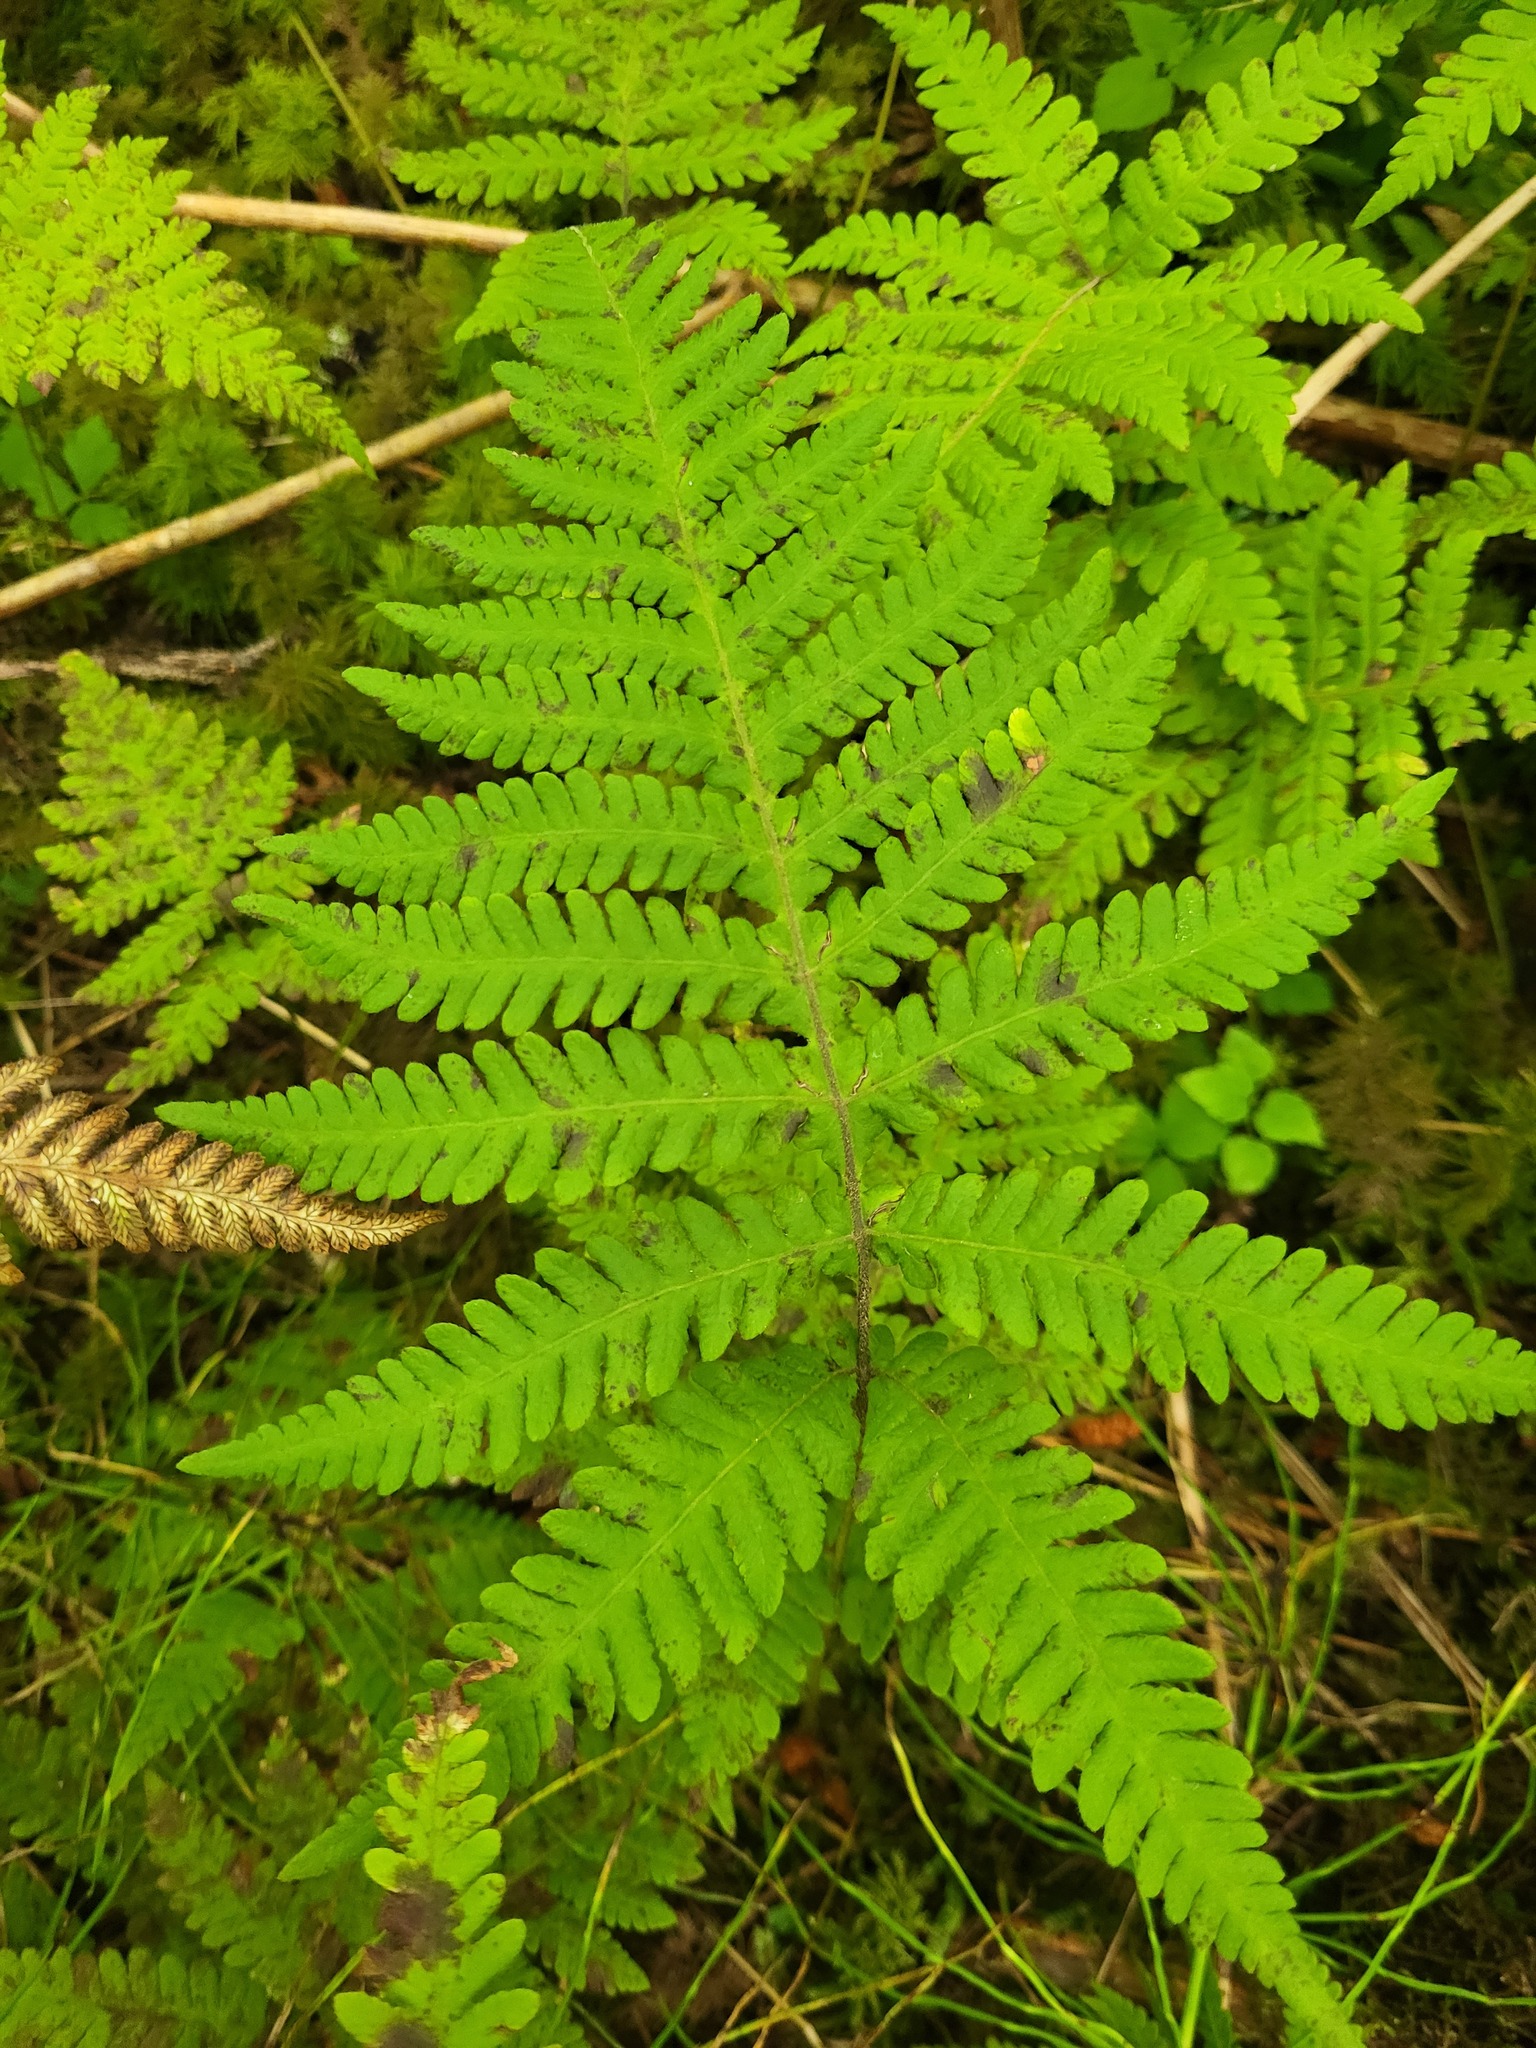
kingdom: Plantae
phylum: Tracheophyta
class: Polypodiopsida
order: Polypodiales
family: Thelypteridaceae
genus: Phegopteris
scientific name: Phegopteris connectilis
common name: Beech fern
